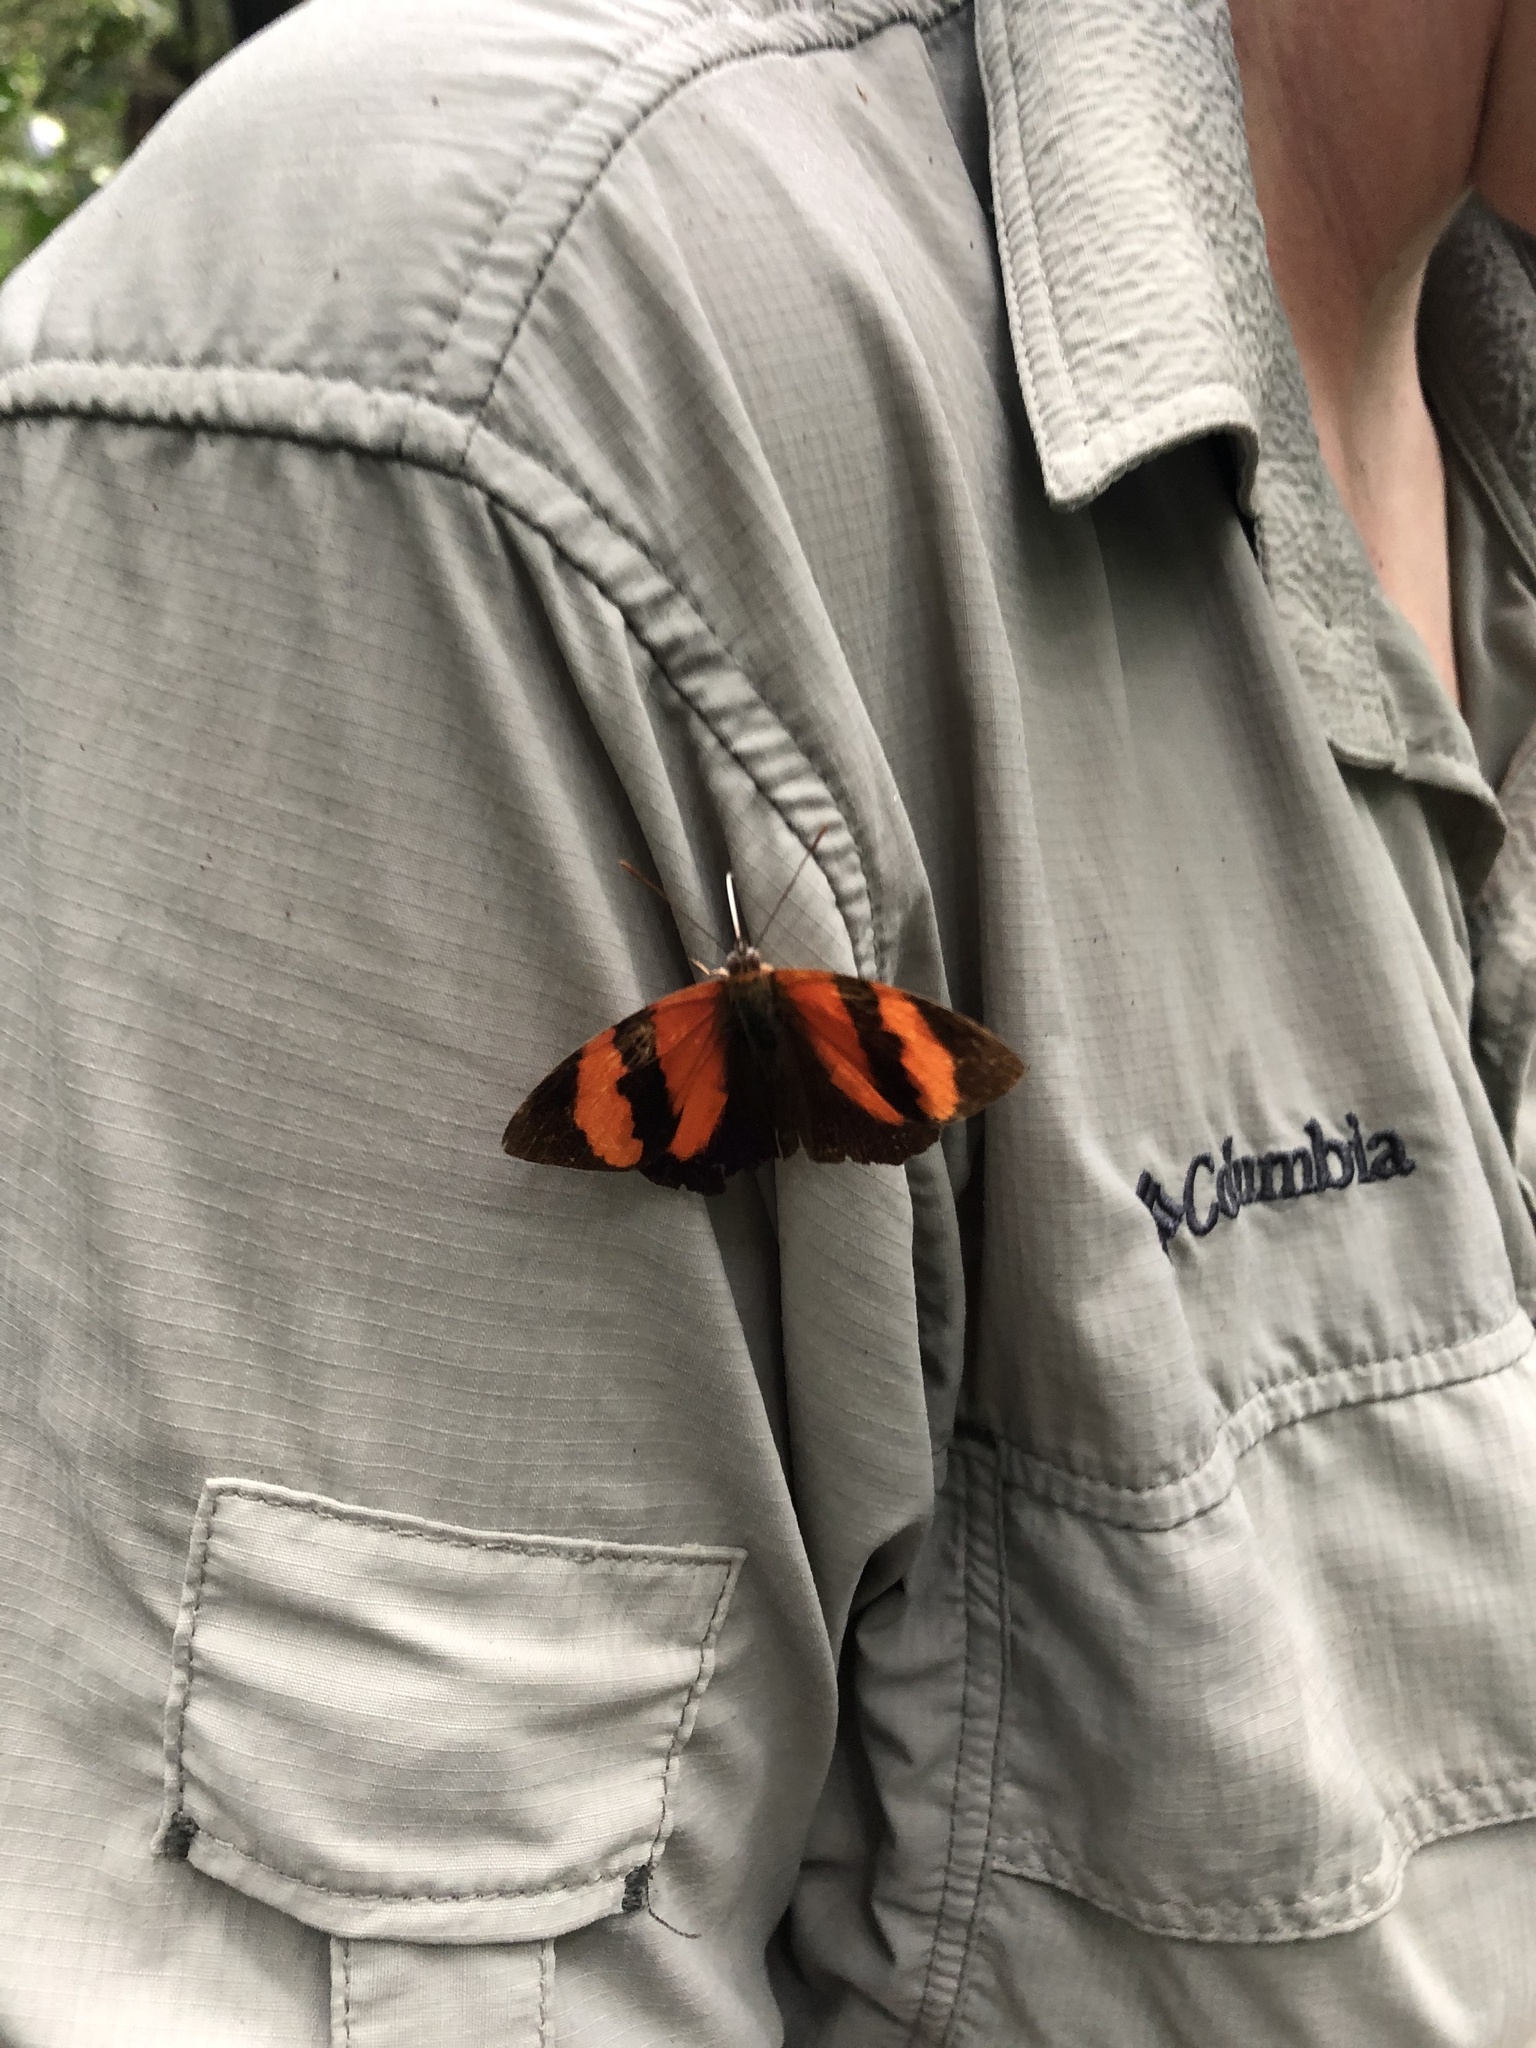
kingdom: Animalia
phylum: Arthropoda
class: Insecta
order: Lepidoptera
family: Nymphalidae
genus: Temenis
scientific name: Temenis pulchra
